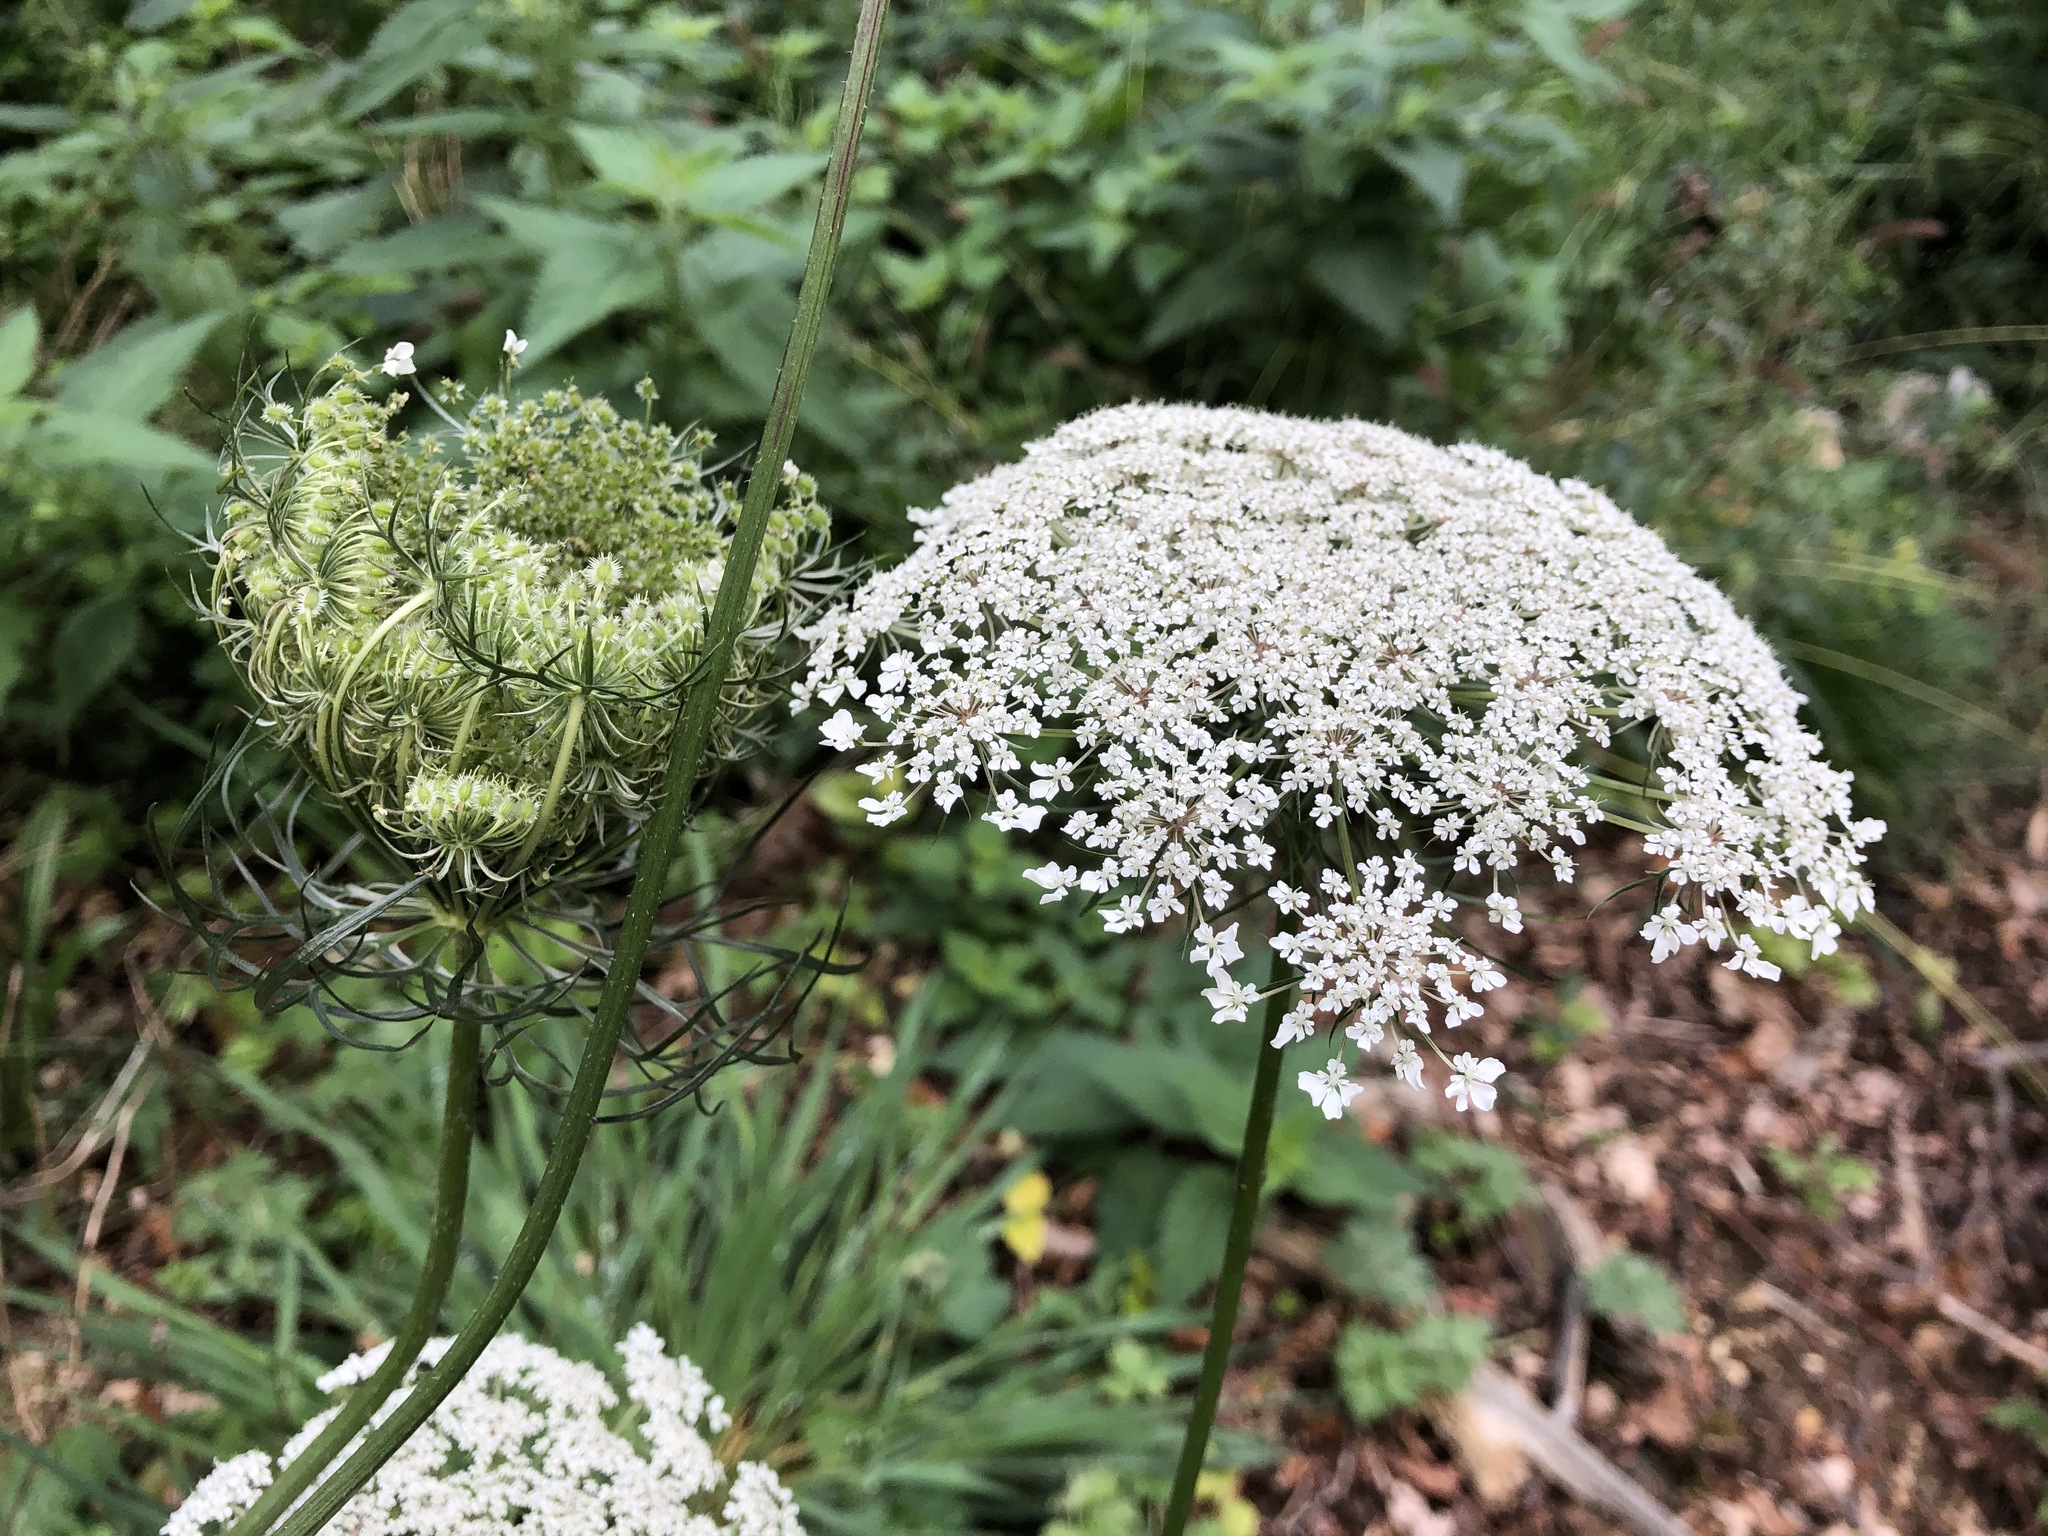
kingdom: Plantae
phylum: Tracheophyta
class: Magnoliopsida
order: Apiales
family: Apiaceae
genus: Daucus
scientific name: Daucus carota
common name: Wild carrot
